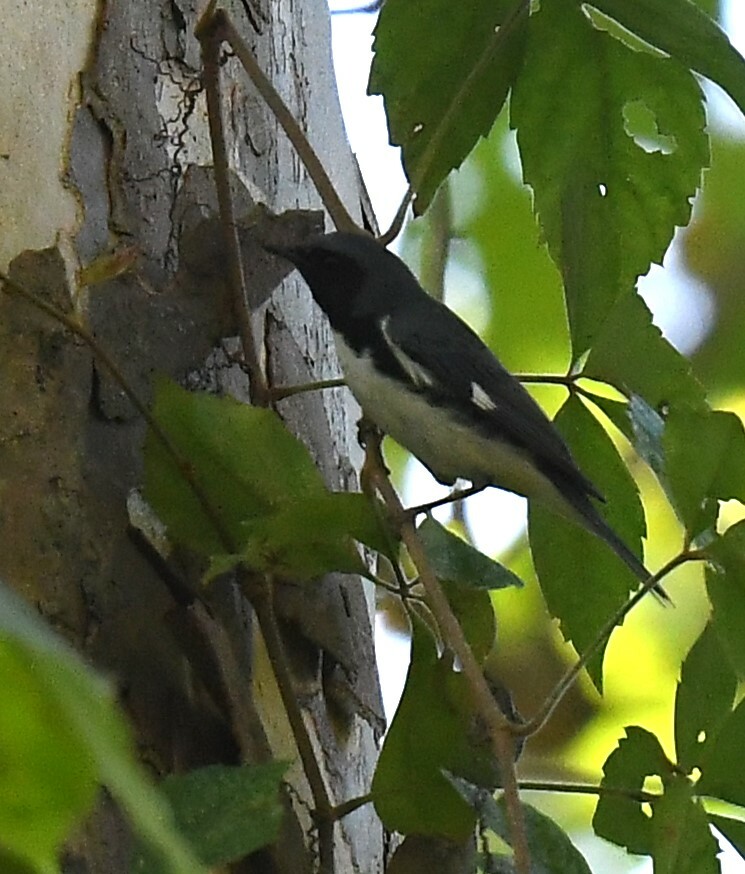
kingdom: Animalia
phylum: Chordata
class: Aves
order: Passeriformes
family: Parulidae
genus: Setophaga
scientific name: Setophaga caerulescens
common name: Black-throated blue warbler
